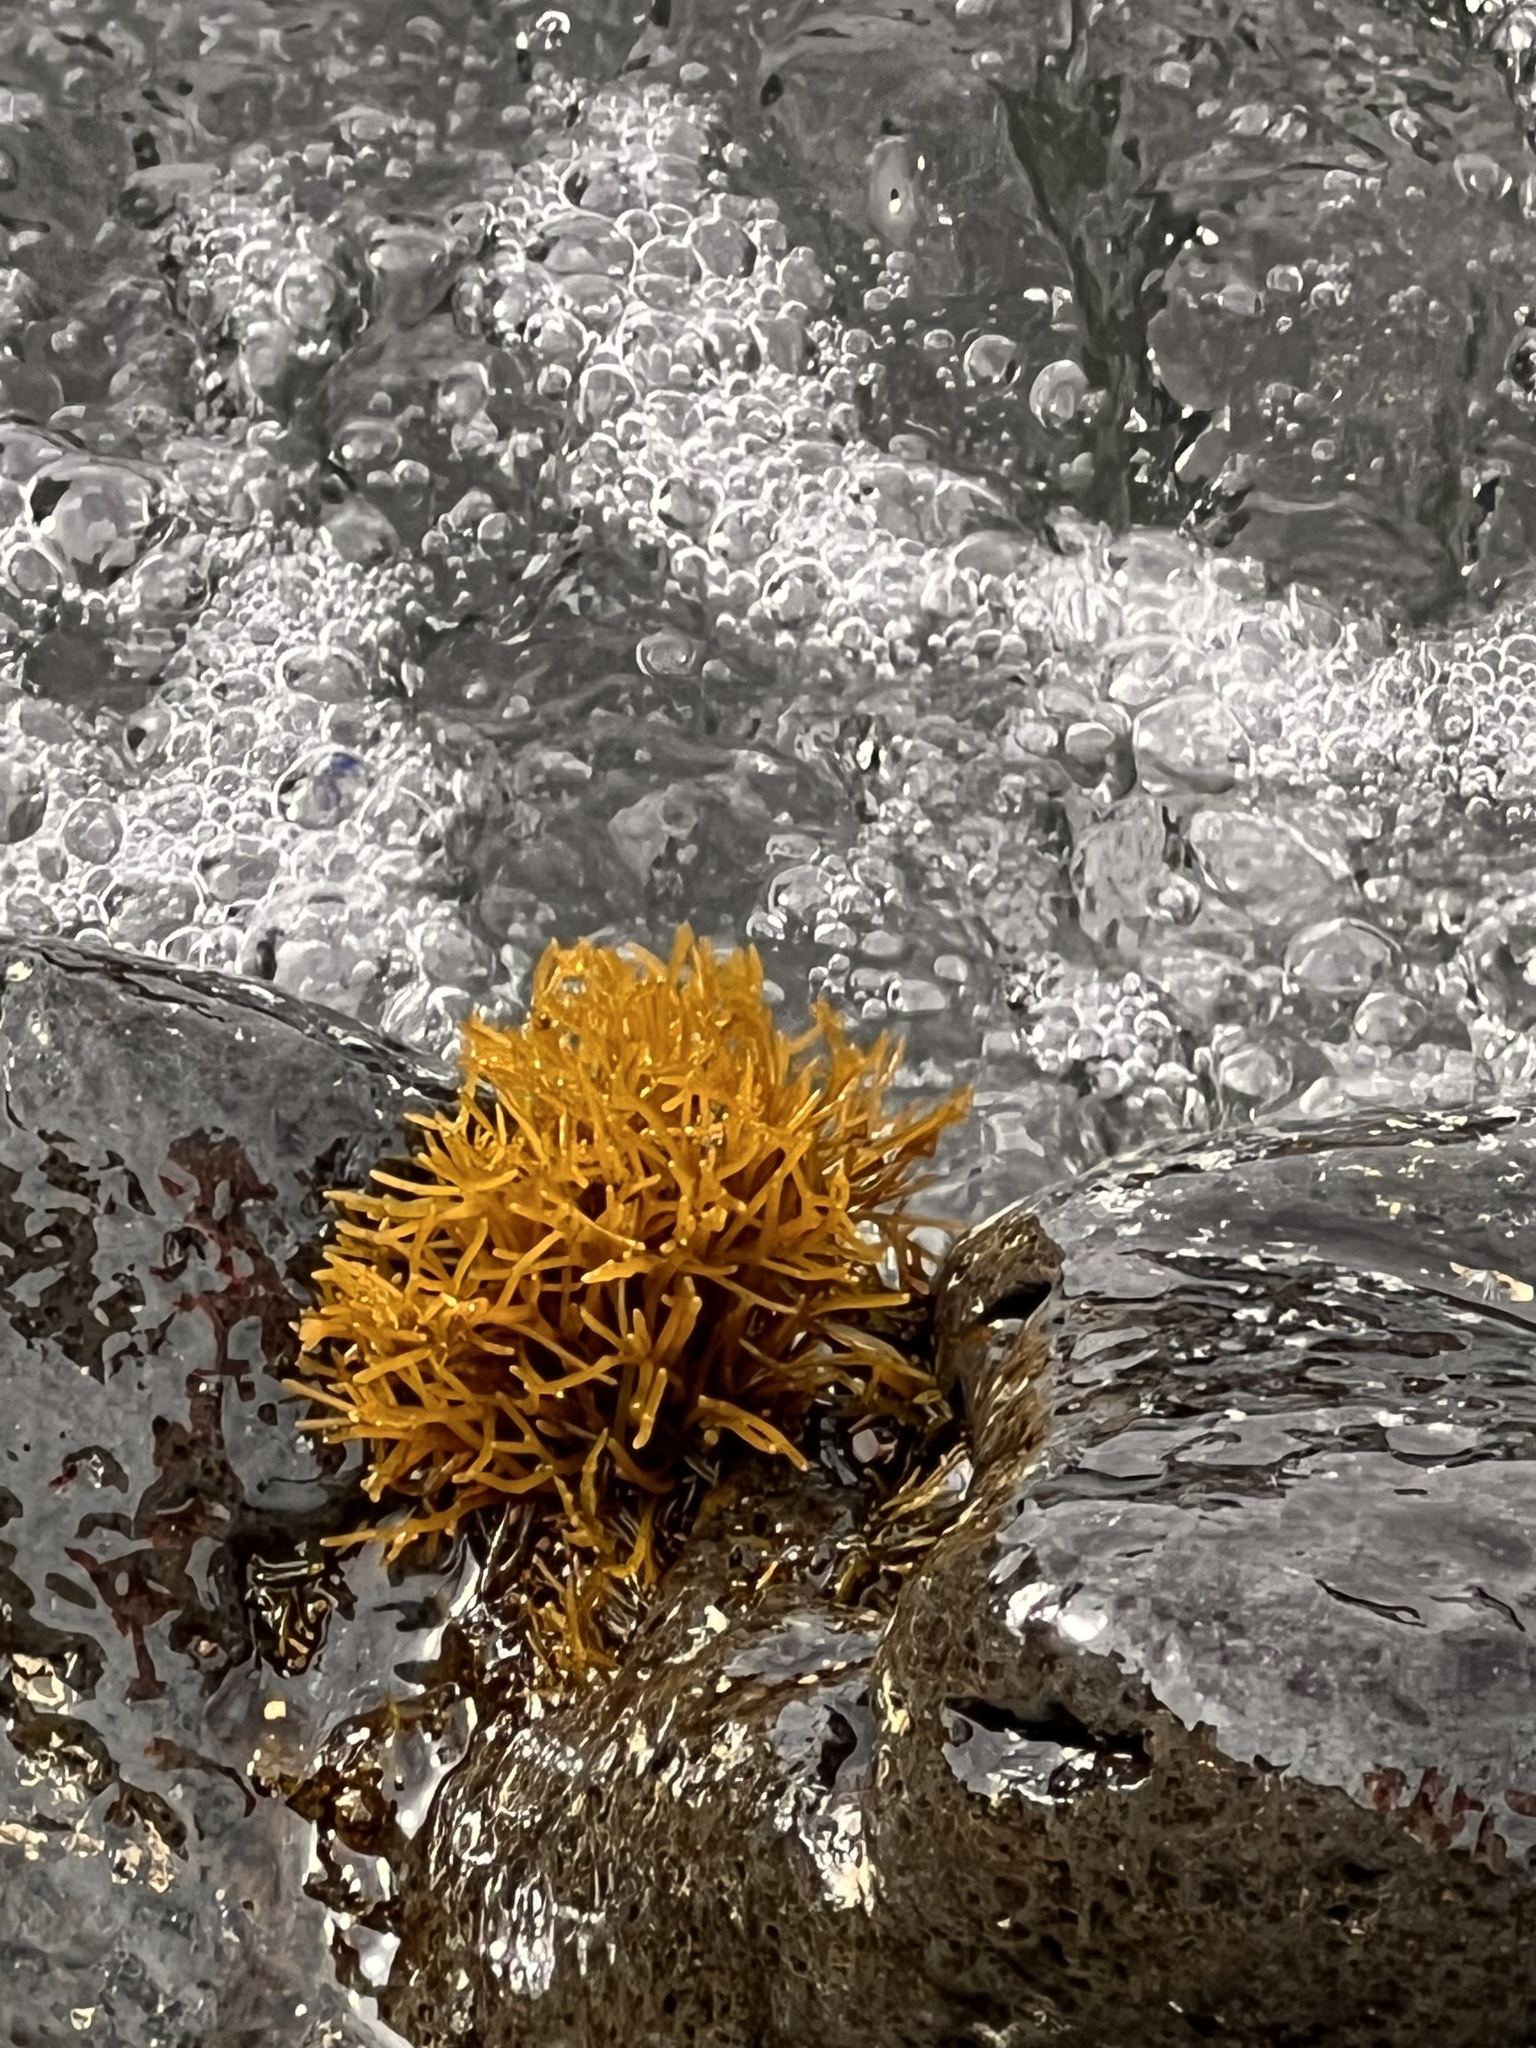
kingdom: Plantae
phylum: Rhodophyta
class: Florideophyceae
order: Gigartinales
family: Phyllophoraceae
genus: Gymnogongrus
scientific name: Gymnogongrus durvillei
